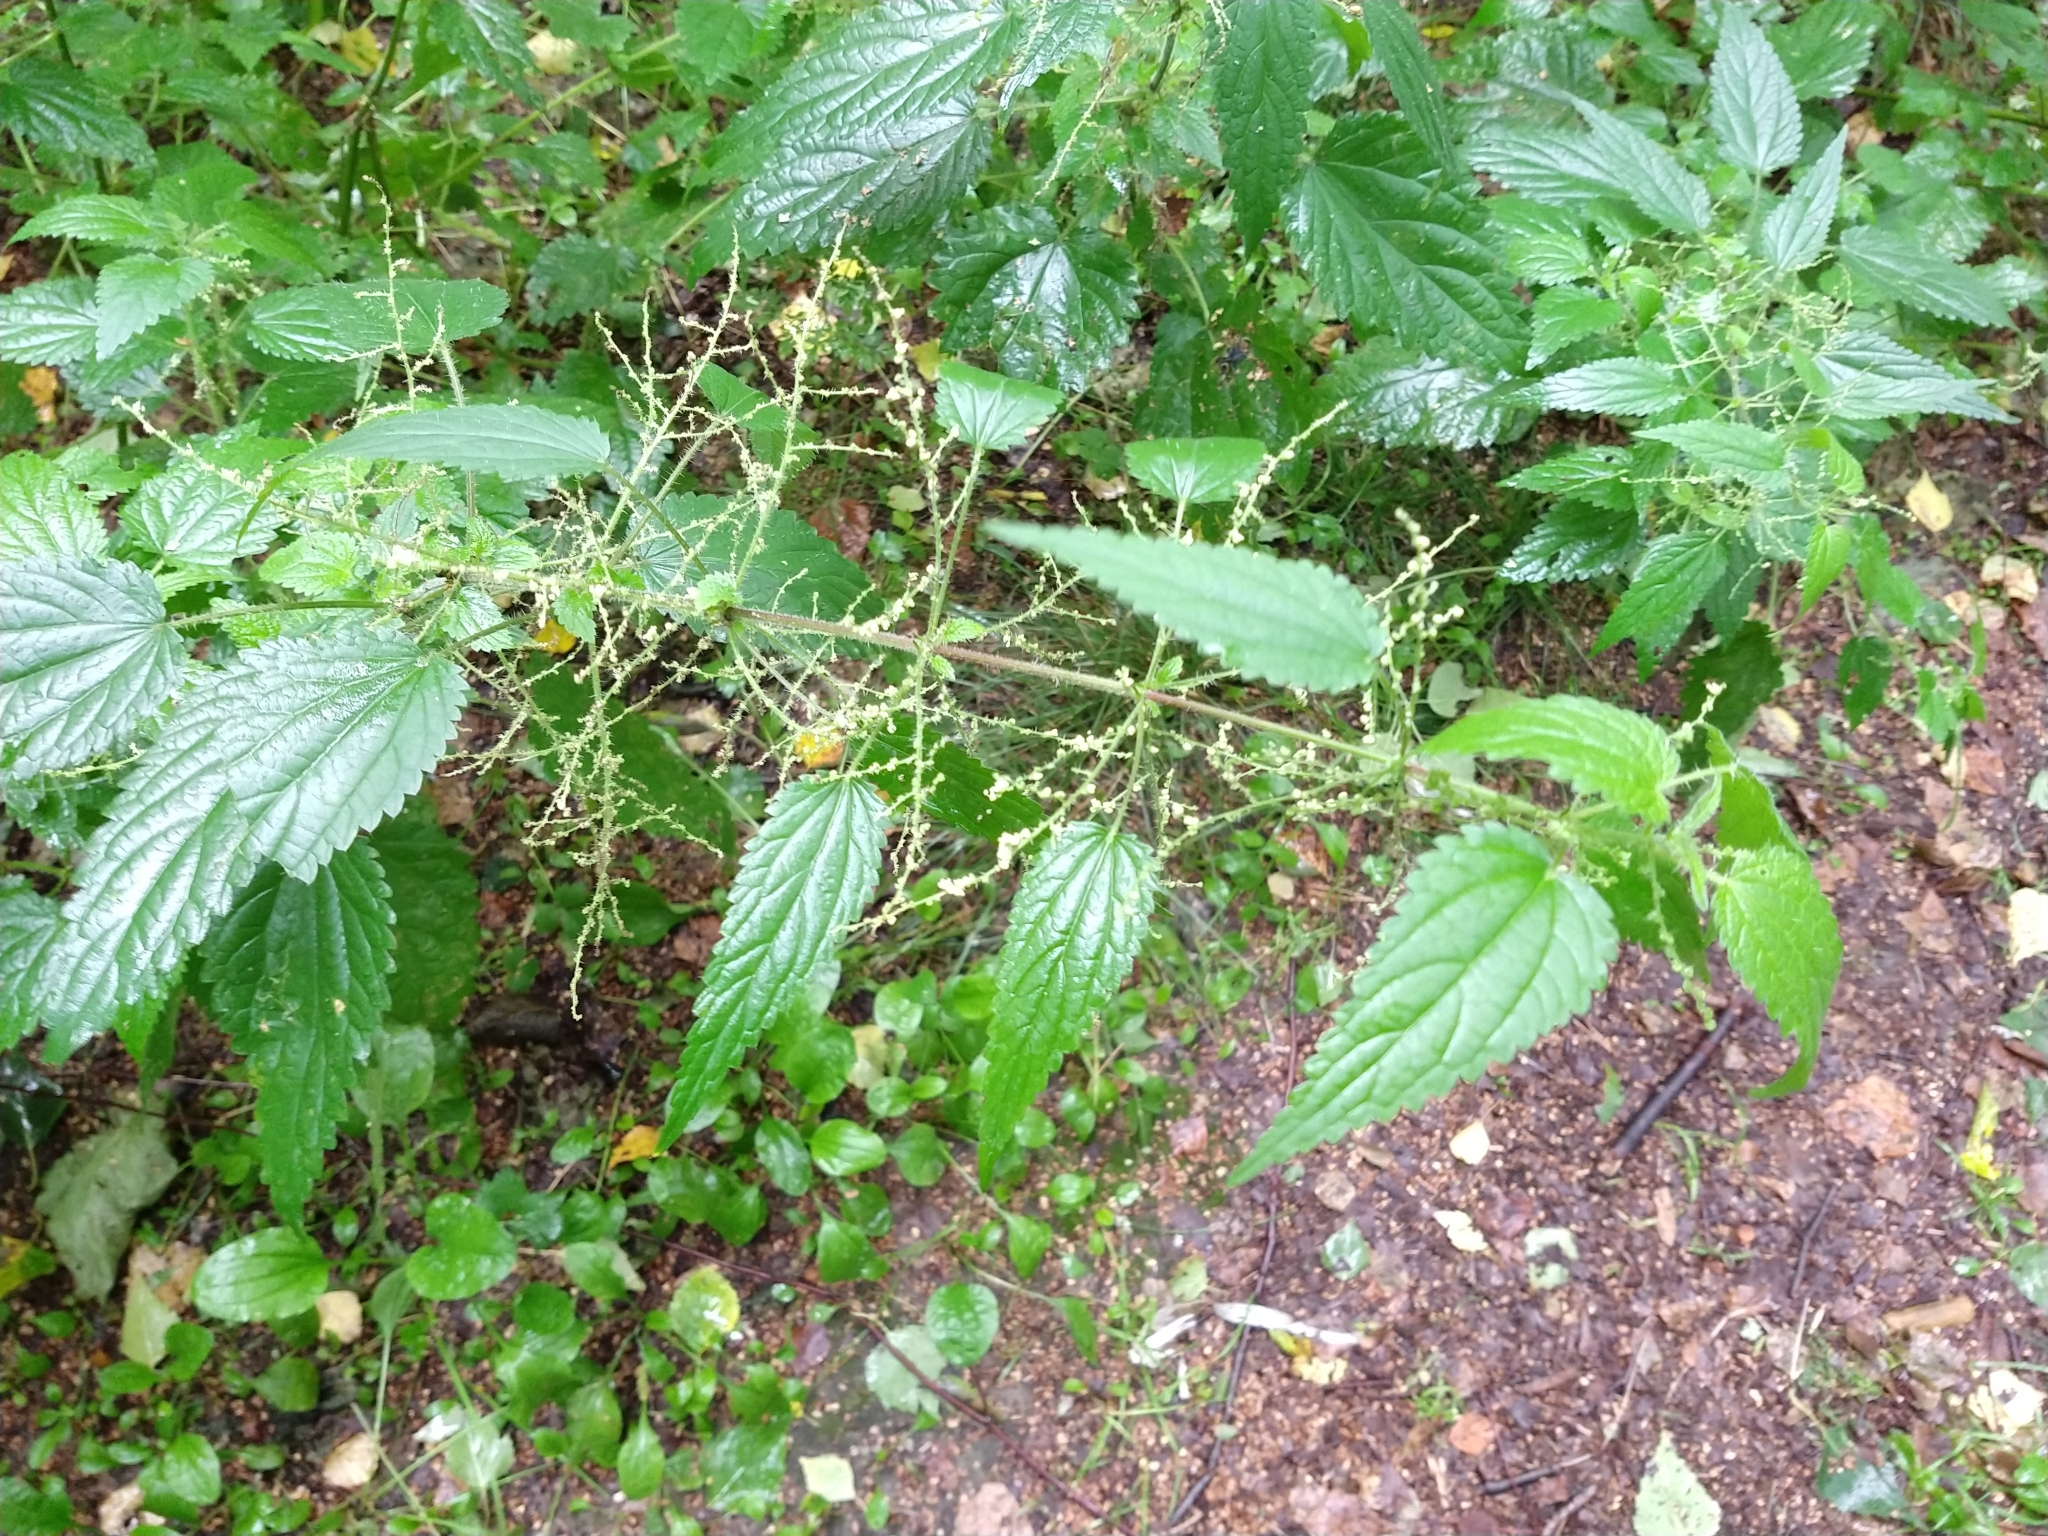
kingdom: Plantae
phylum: Tracheophyta
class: Magnoliopsida
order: Rosales
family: Urticaceae
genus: Urtica
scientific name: Urtica dioica
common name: Common nettle
